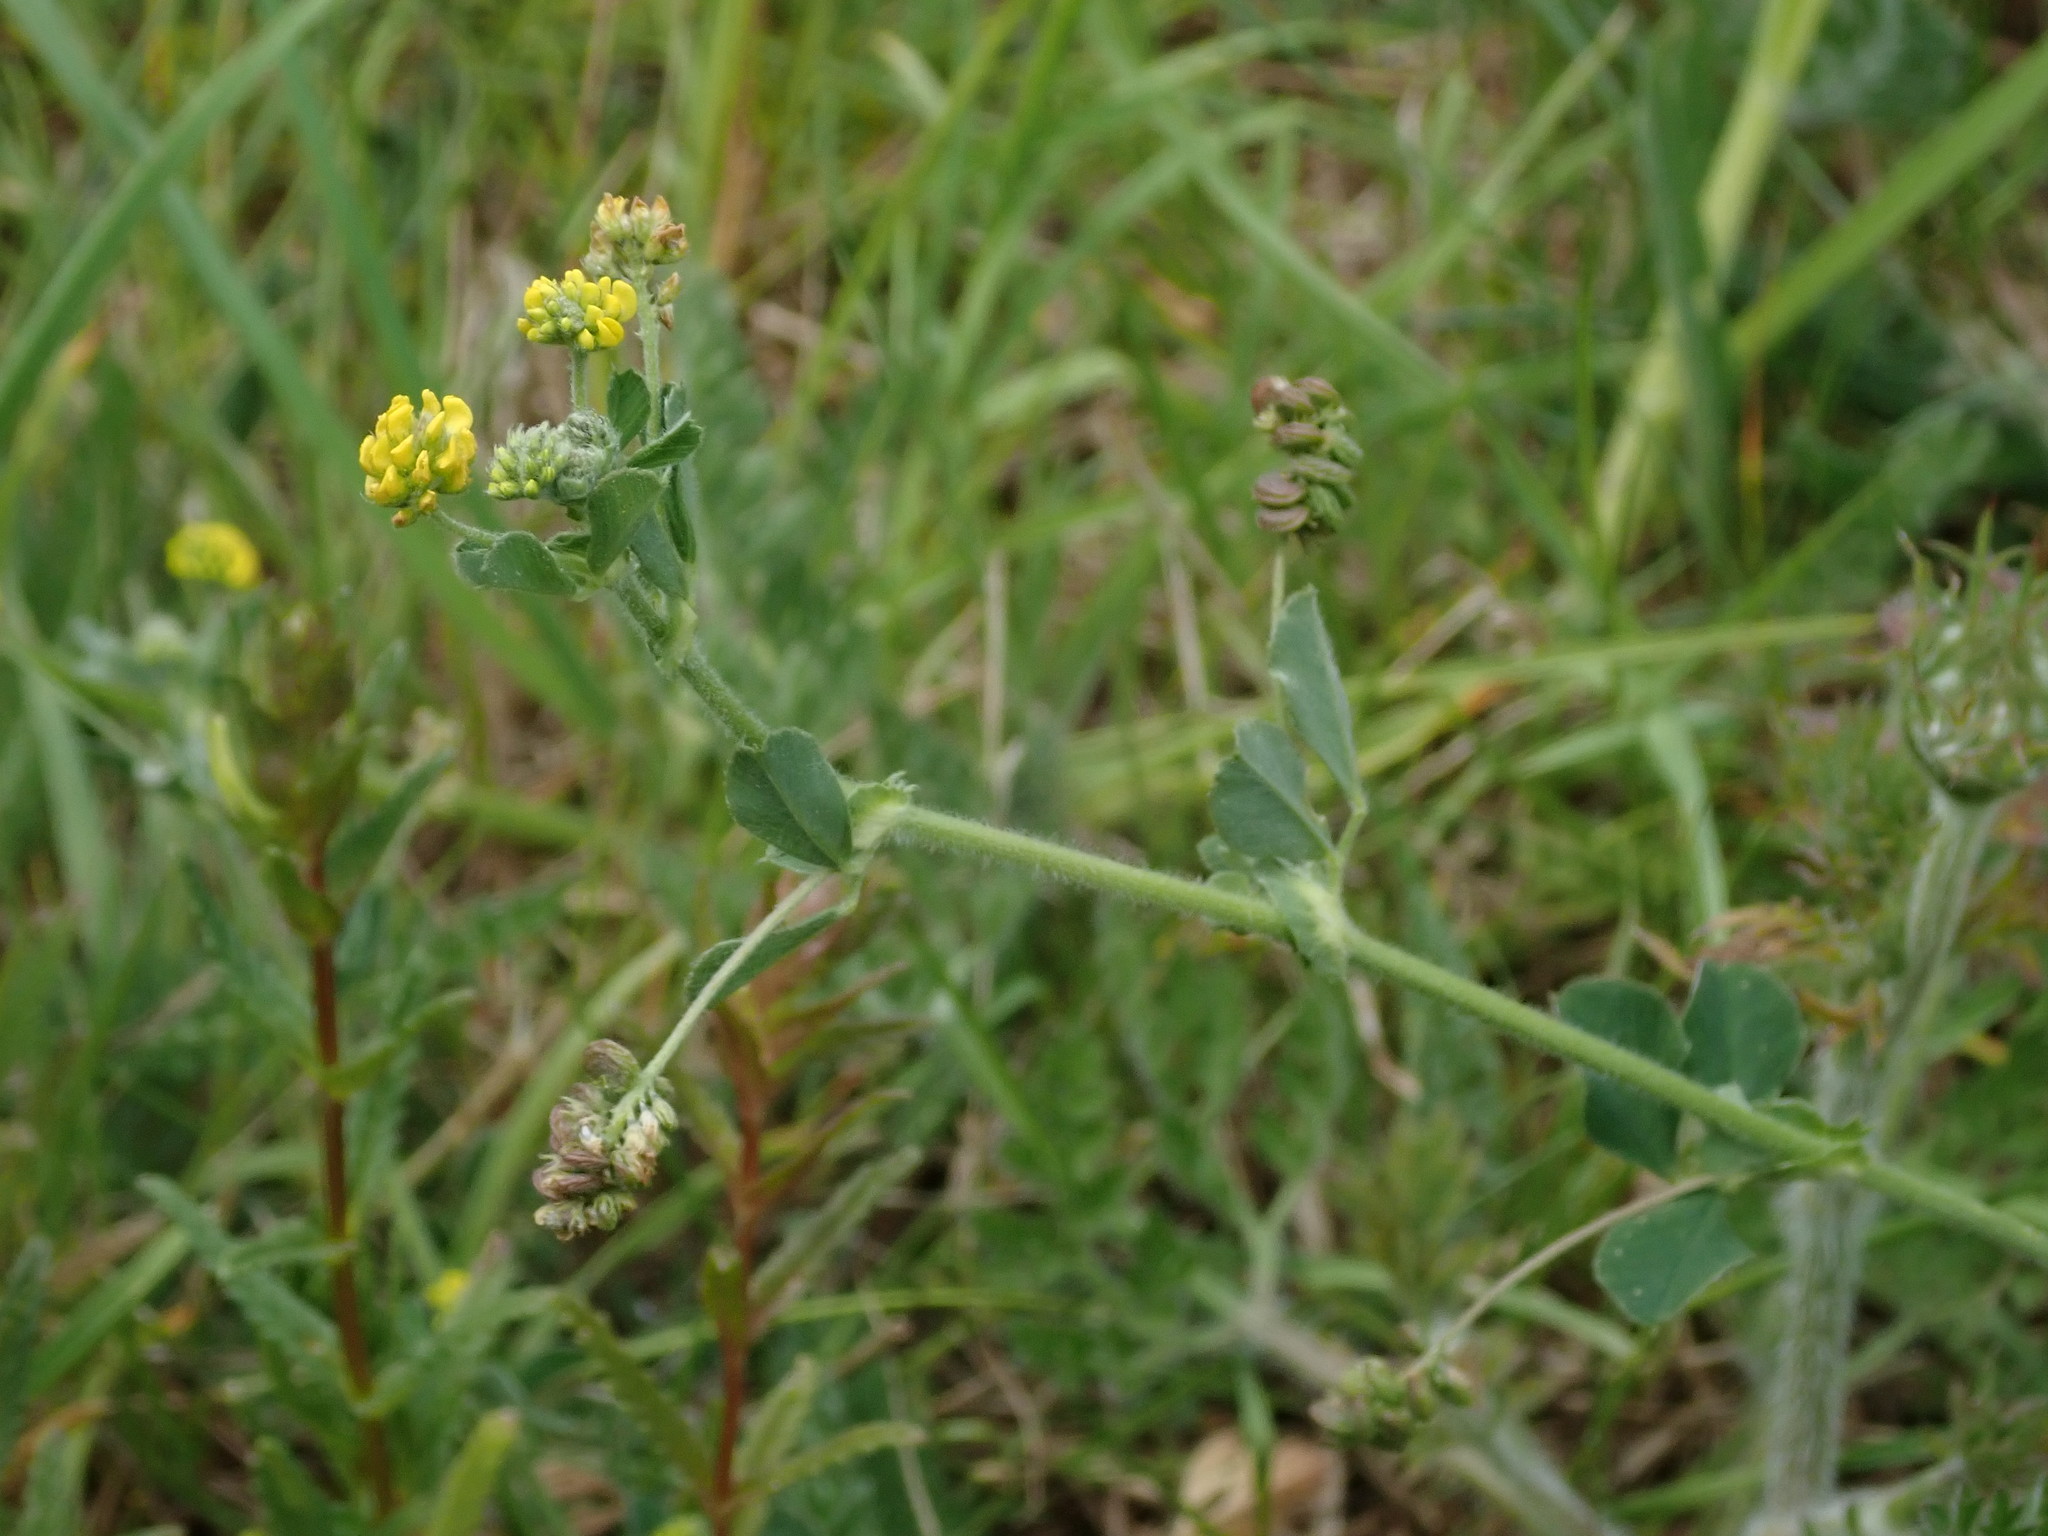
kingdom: Plantae
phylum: Tracheophyta
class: Magnoliopsida
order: Fabales
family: Fabaceae
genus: Medicago
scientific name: Medicago lupulina
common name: Black medick
